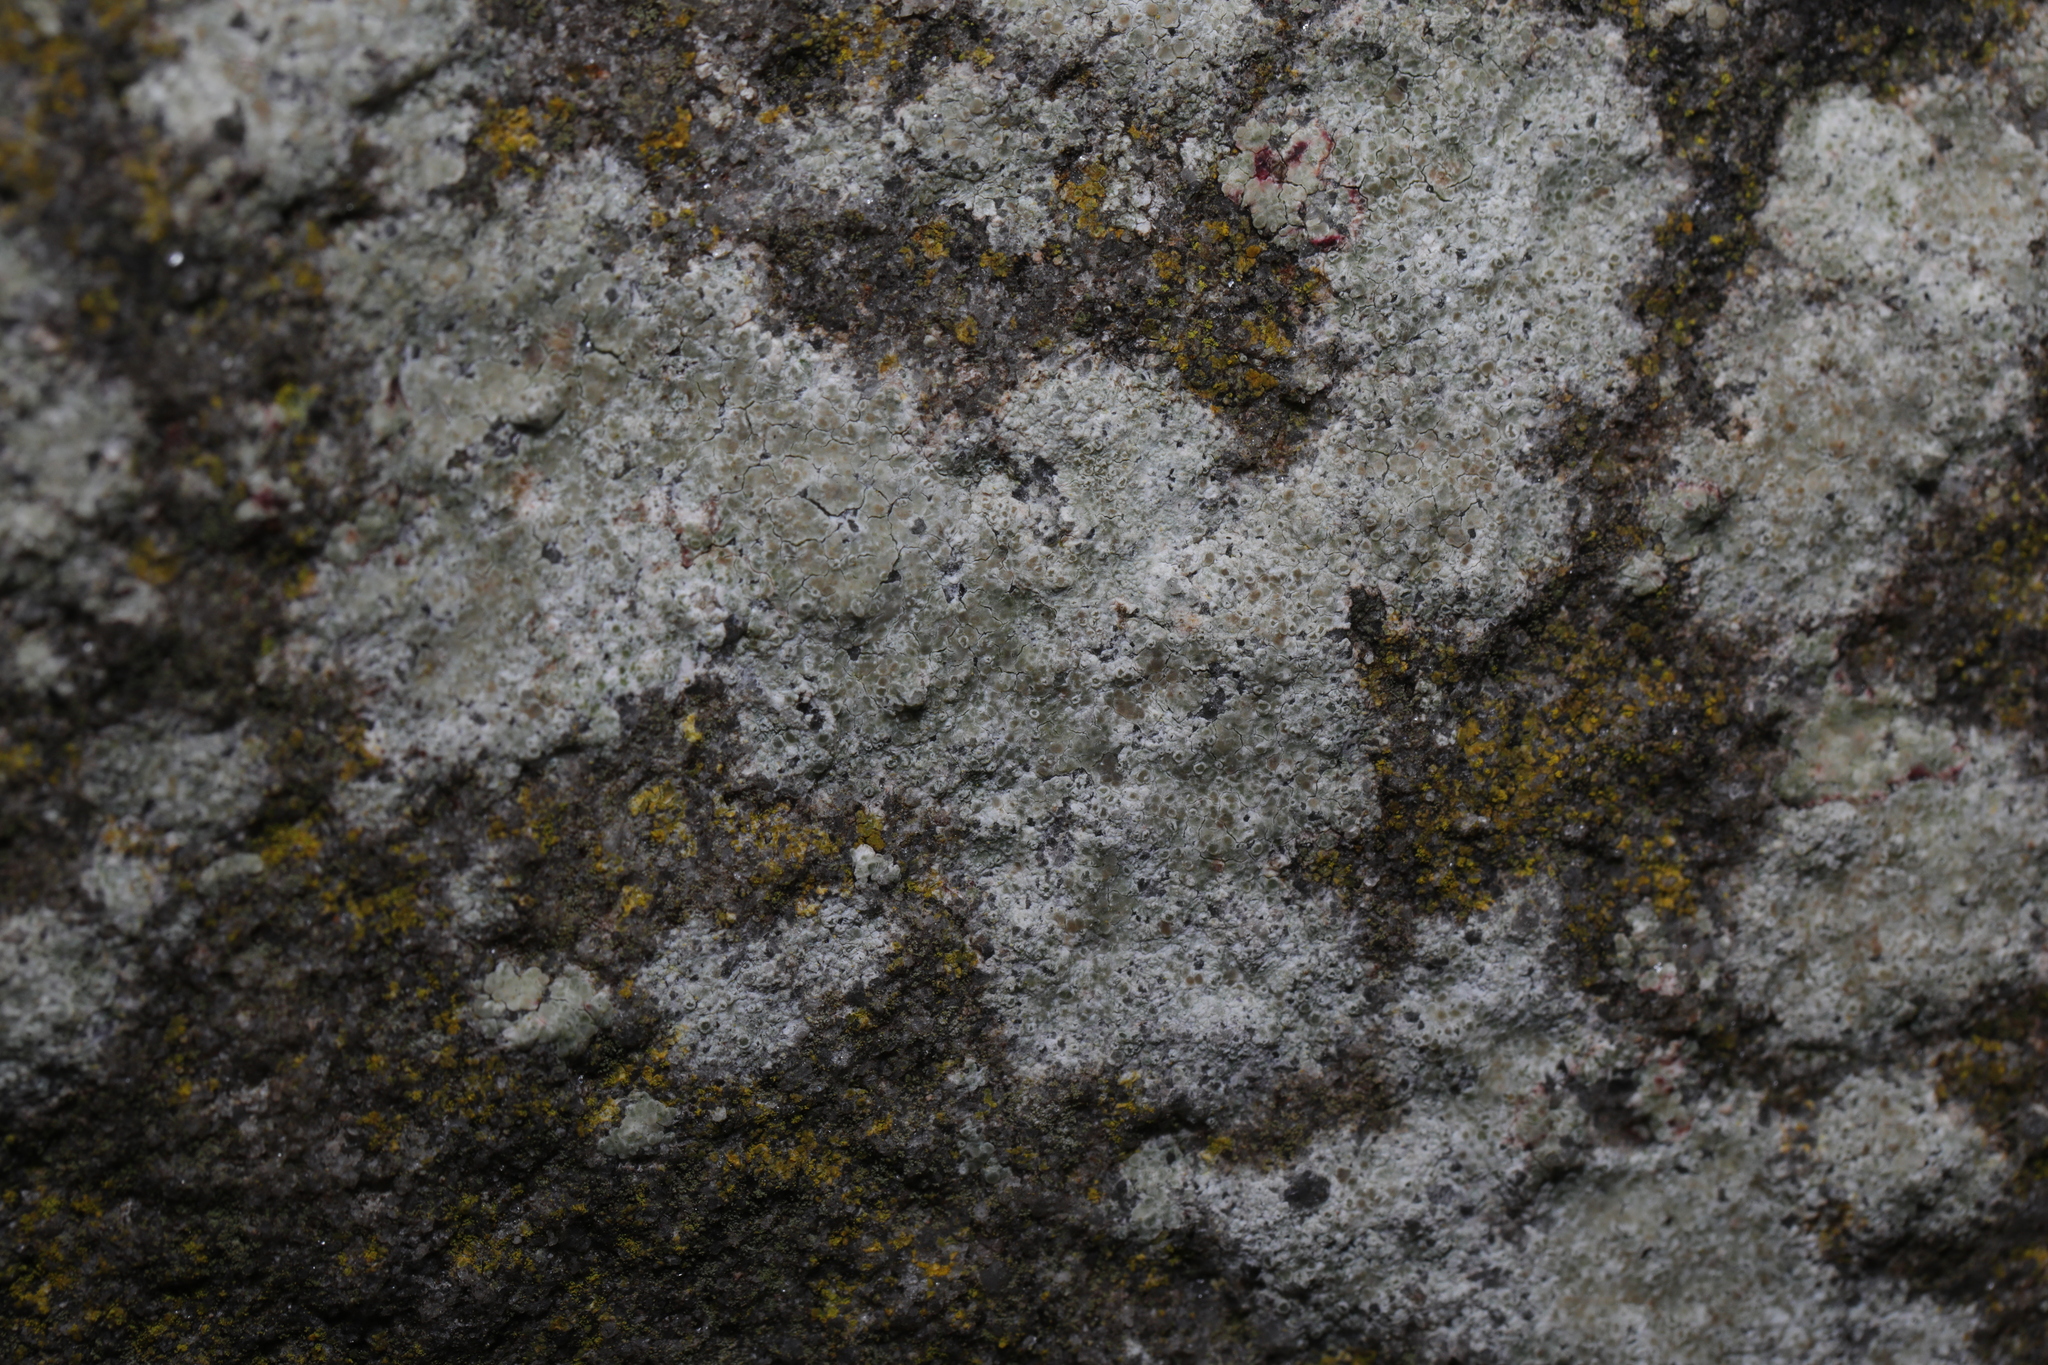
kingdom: Fungi
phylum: Ascomycota
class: Lecanoromycetes
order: Lecanorales
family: Lecanoraceae
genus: Polyozosia
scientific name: Polyozosia albescens
